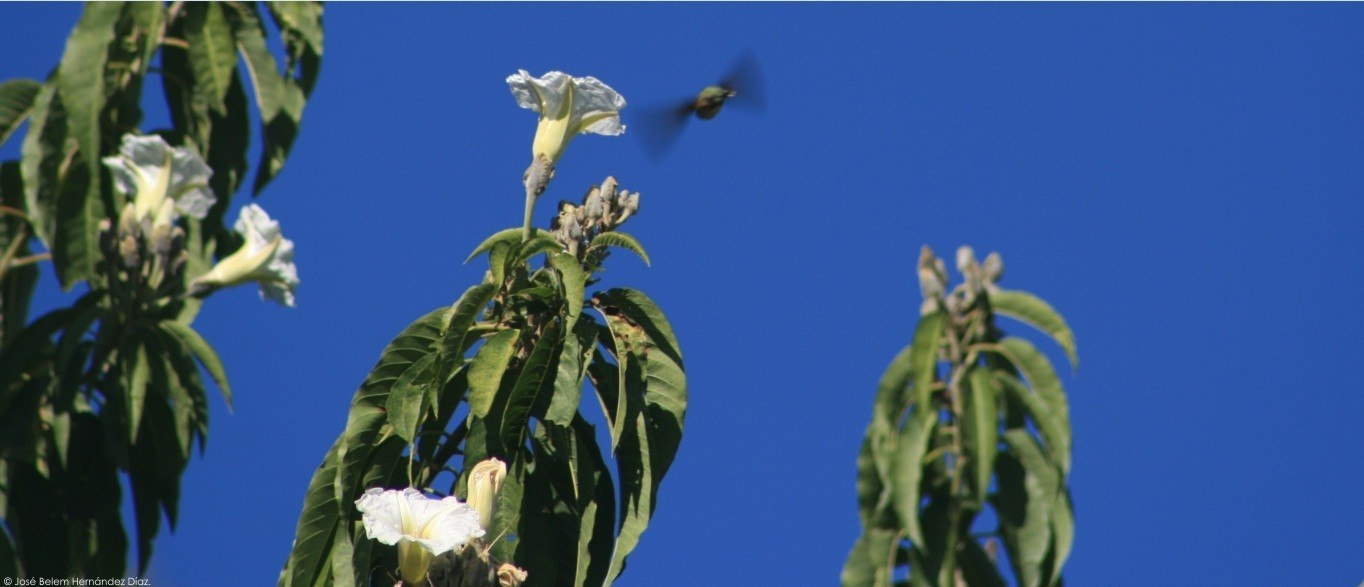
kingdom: Plantae
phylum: Tracheophyta
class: Magnoliopsida
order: Solanales
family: Convolvulaceae
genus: Ipomoea
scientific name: Ipomoea murucoides
